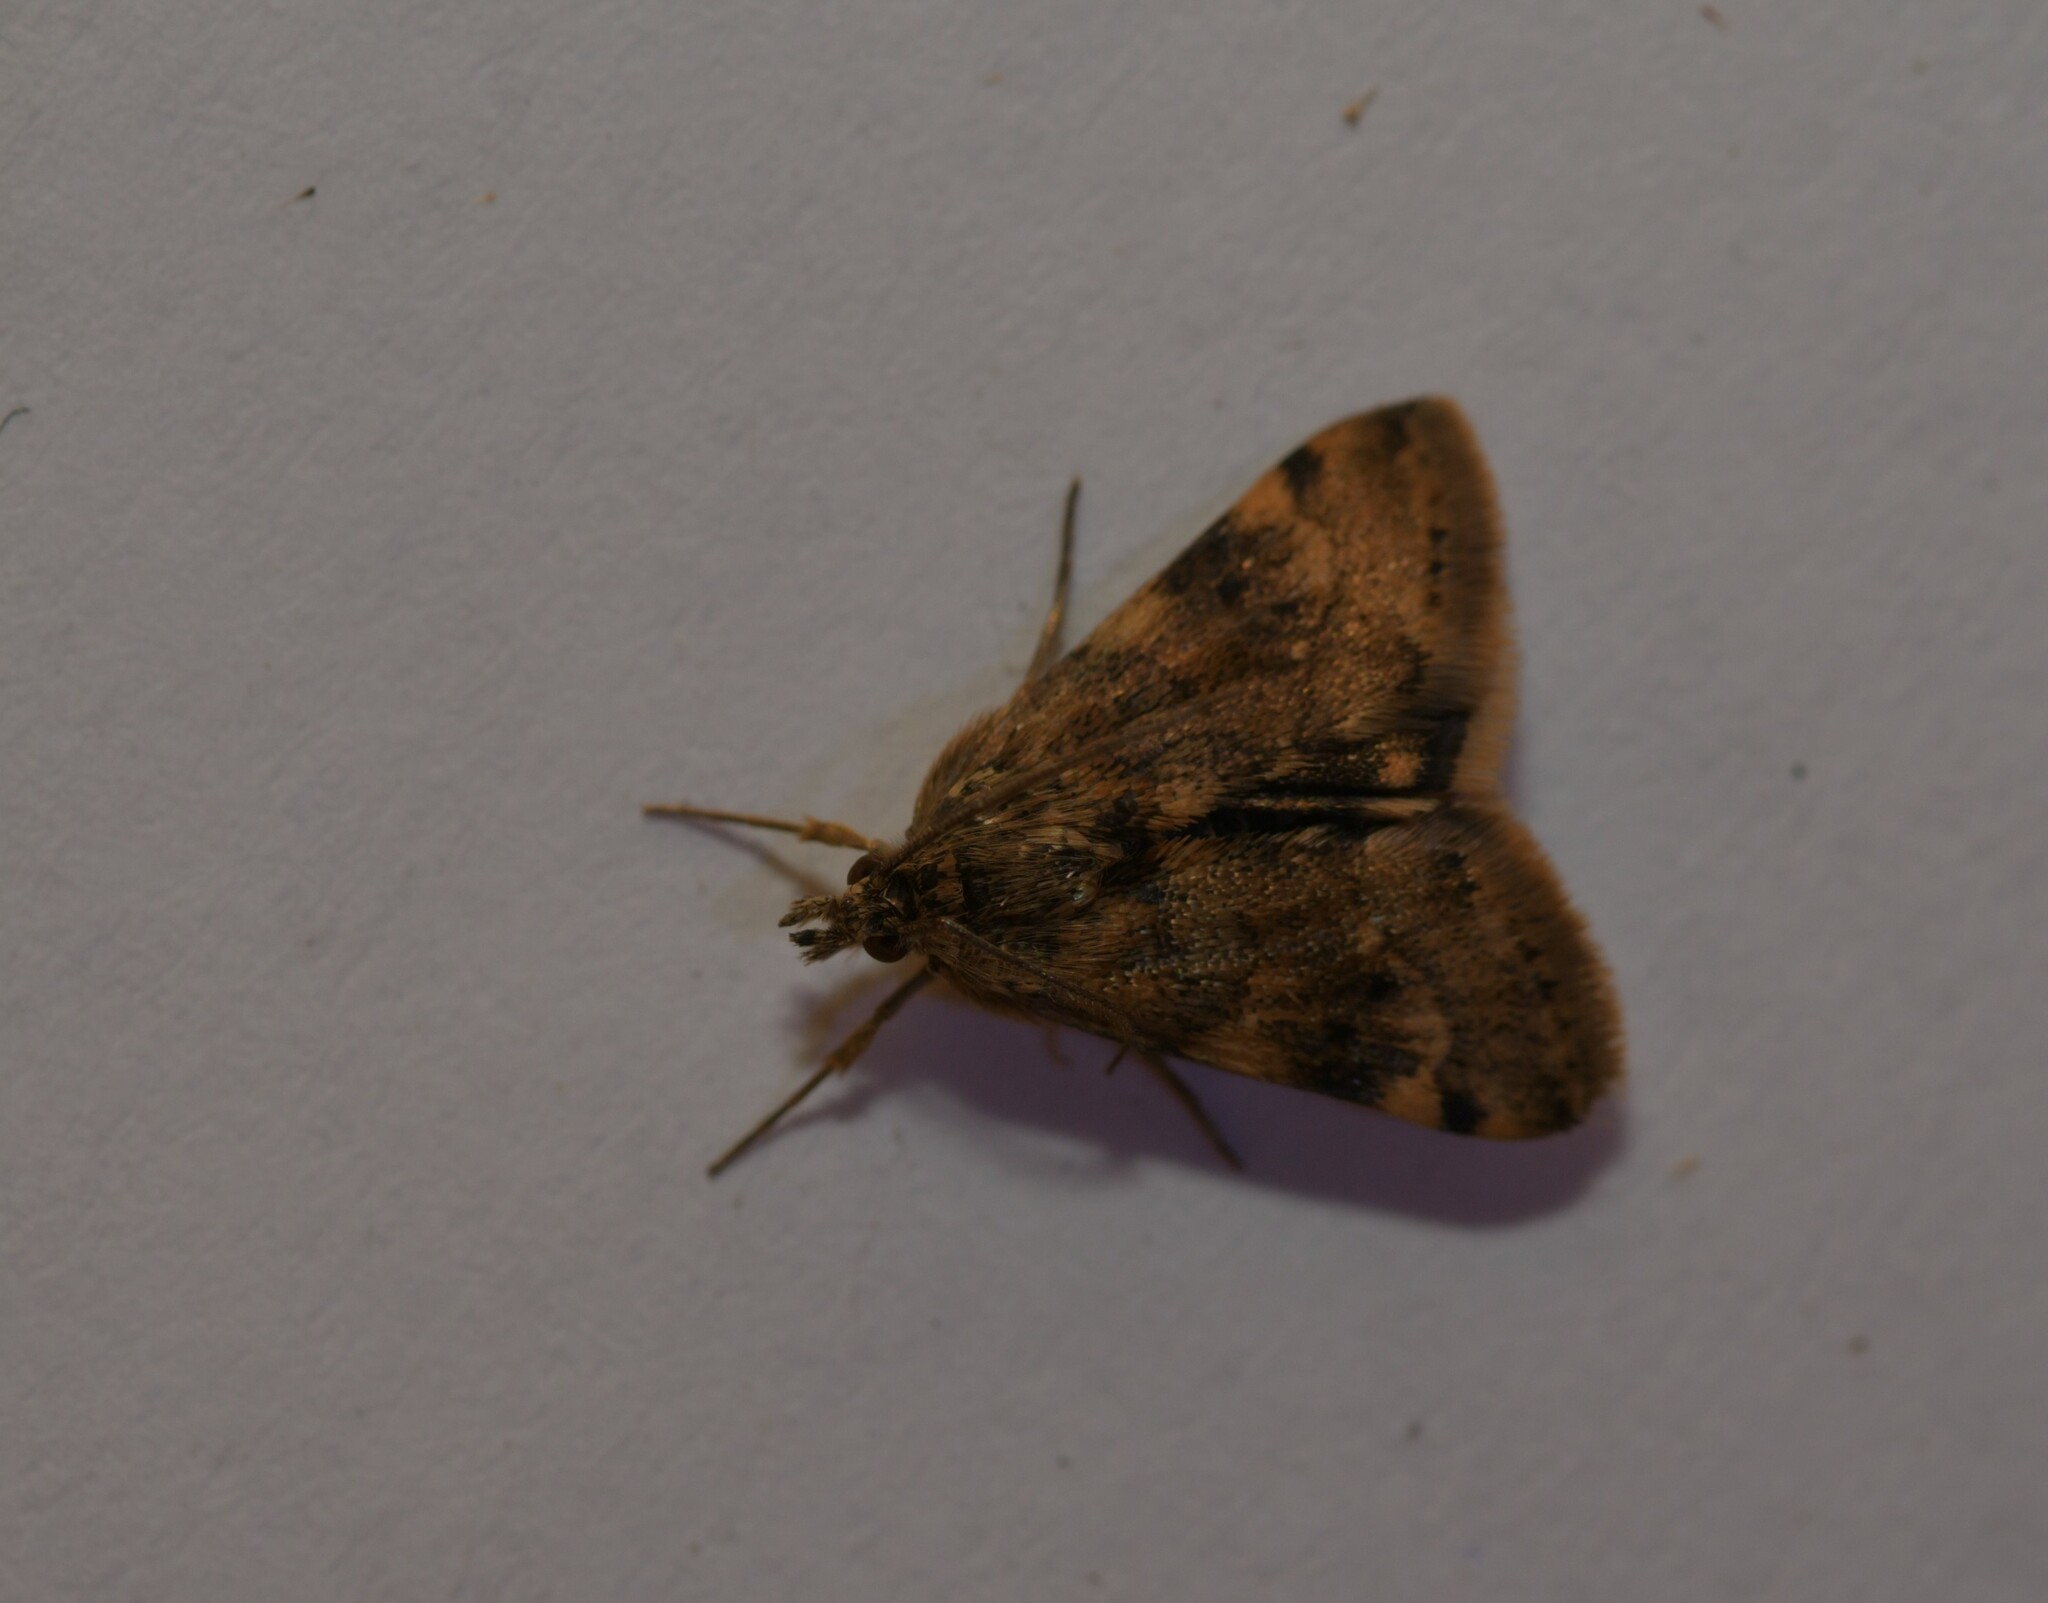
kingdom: Animalia
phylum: Arthropoda
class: Insecta
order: Lepidoptera
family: Crambidae
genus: Noctuelia
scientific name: Noctuelia Aporodes floralis
